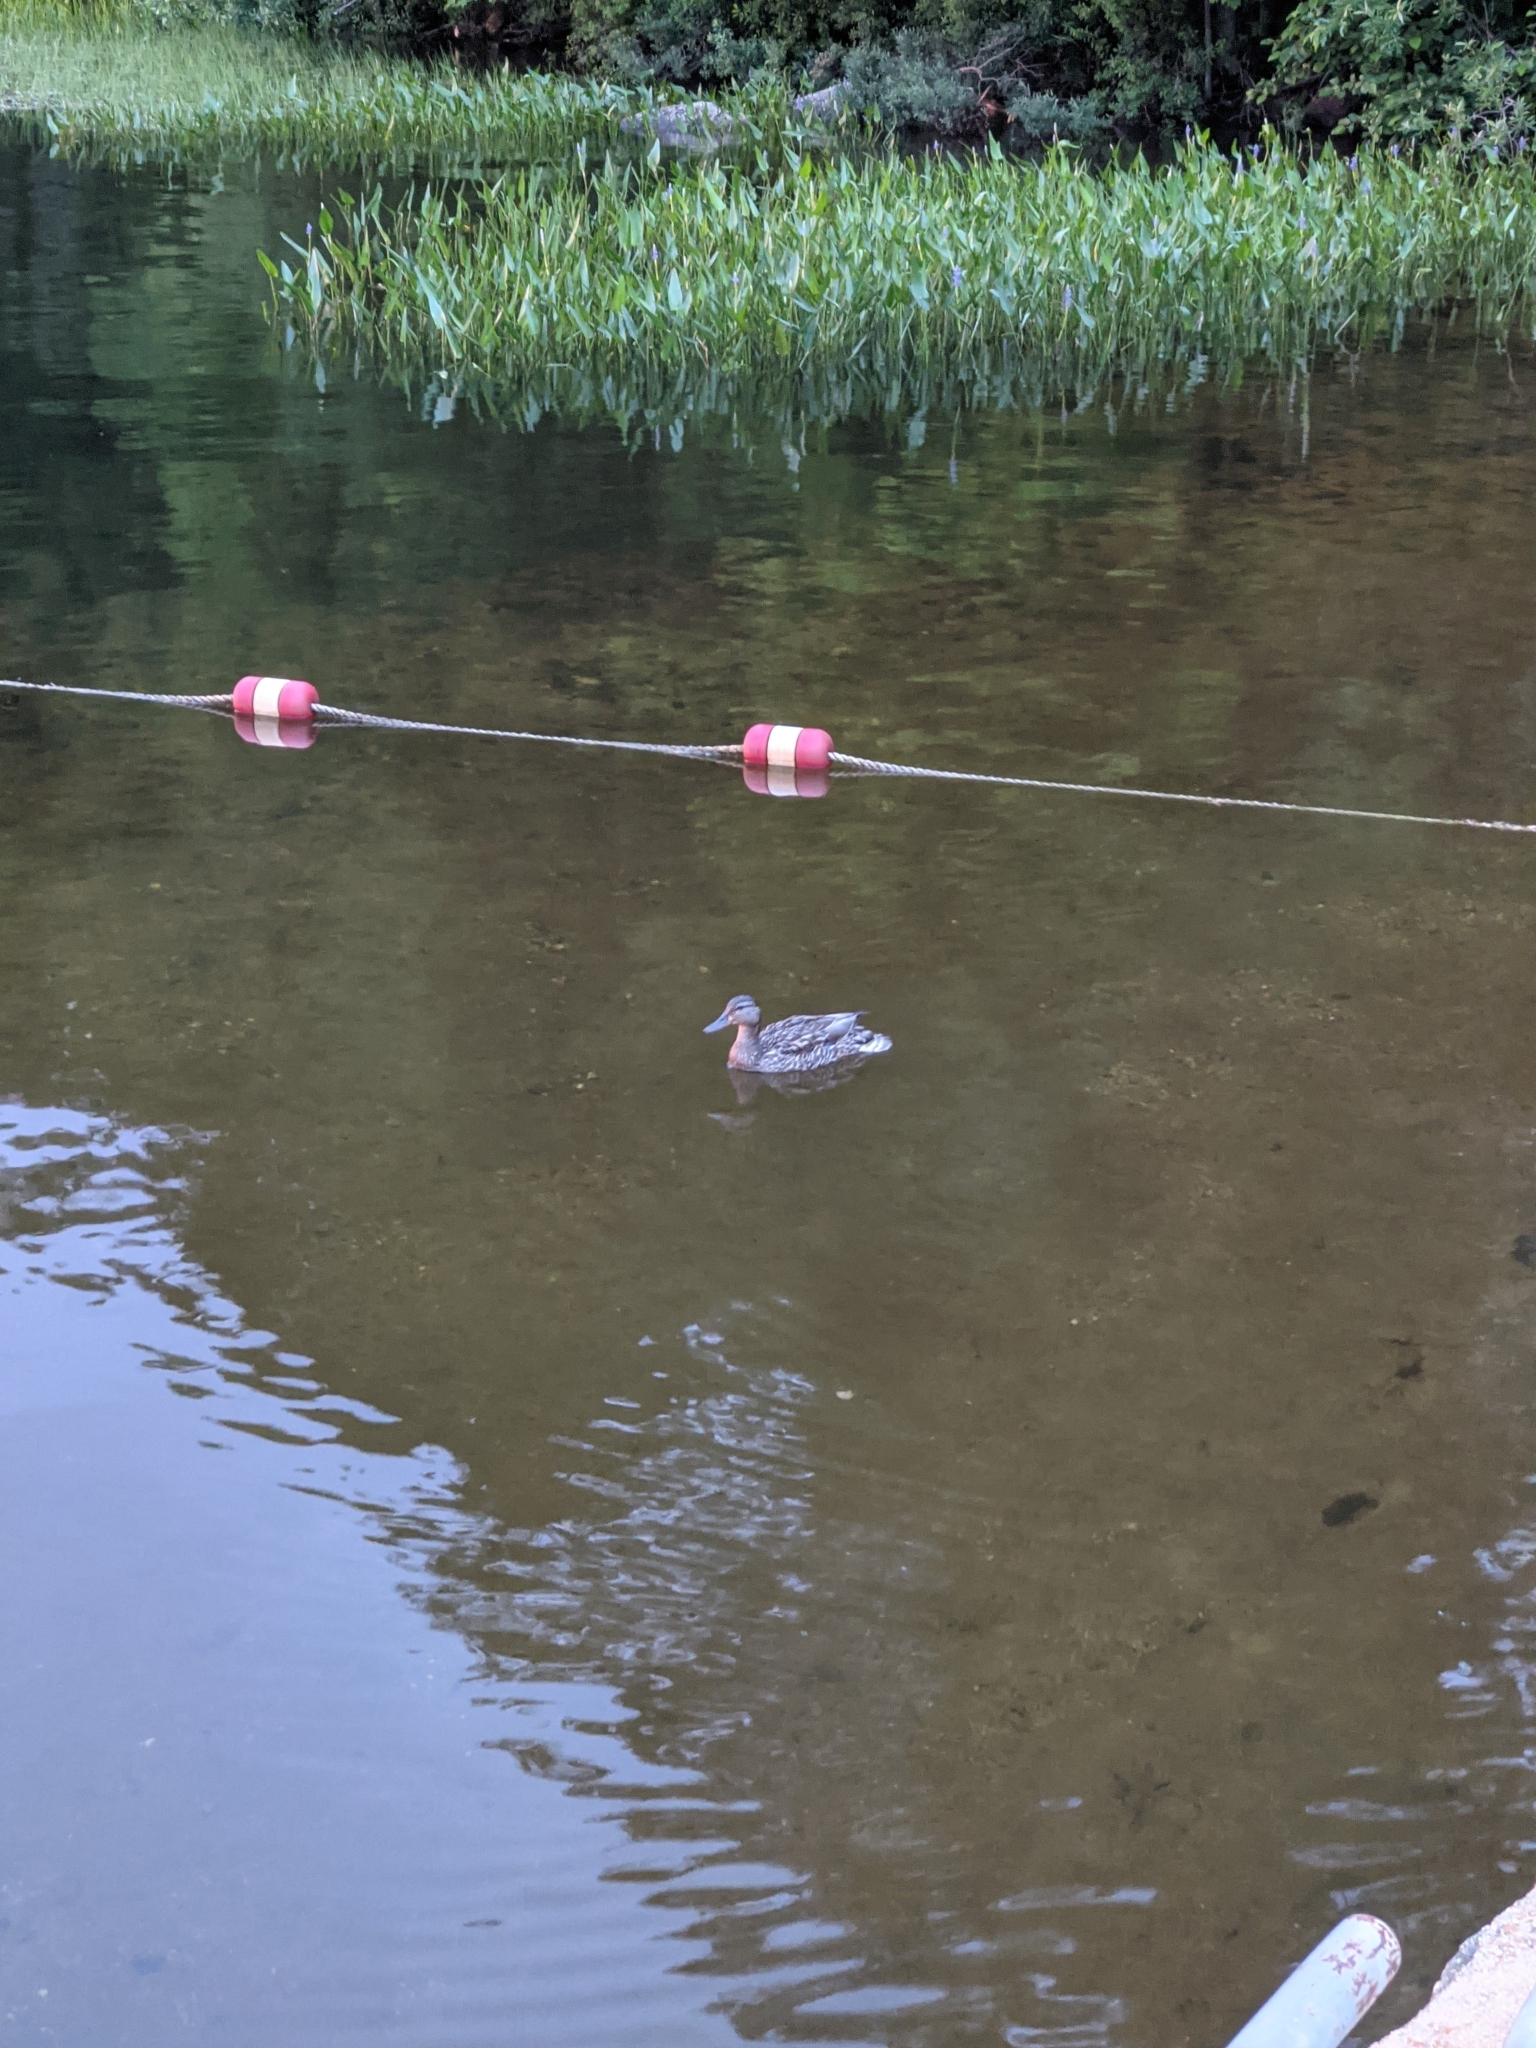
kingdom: Animalia
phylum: Chordata
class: Aves
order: Anseriformes
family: Anatidae
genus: Anas
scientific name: Anas platyrhynchos
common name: Mallard
